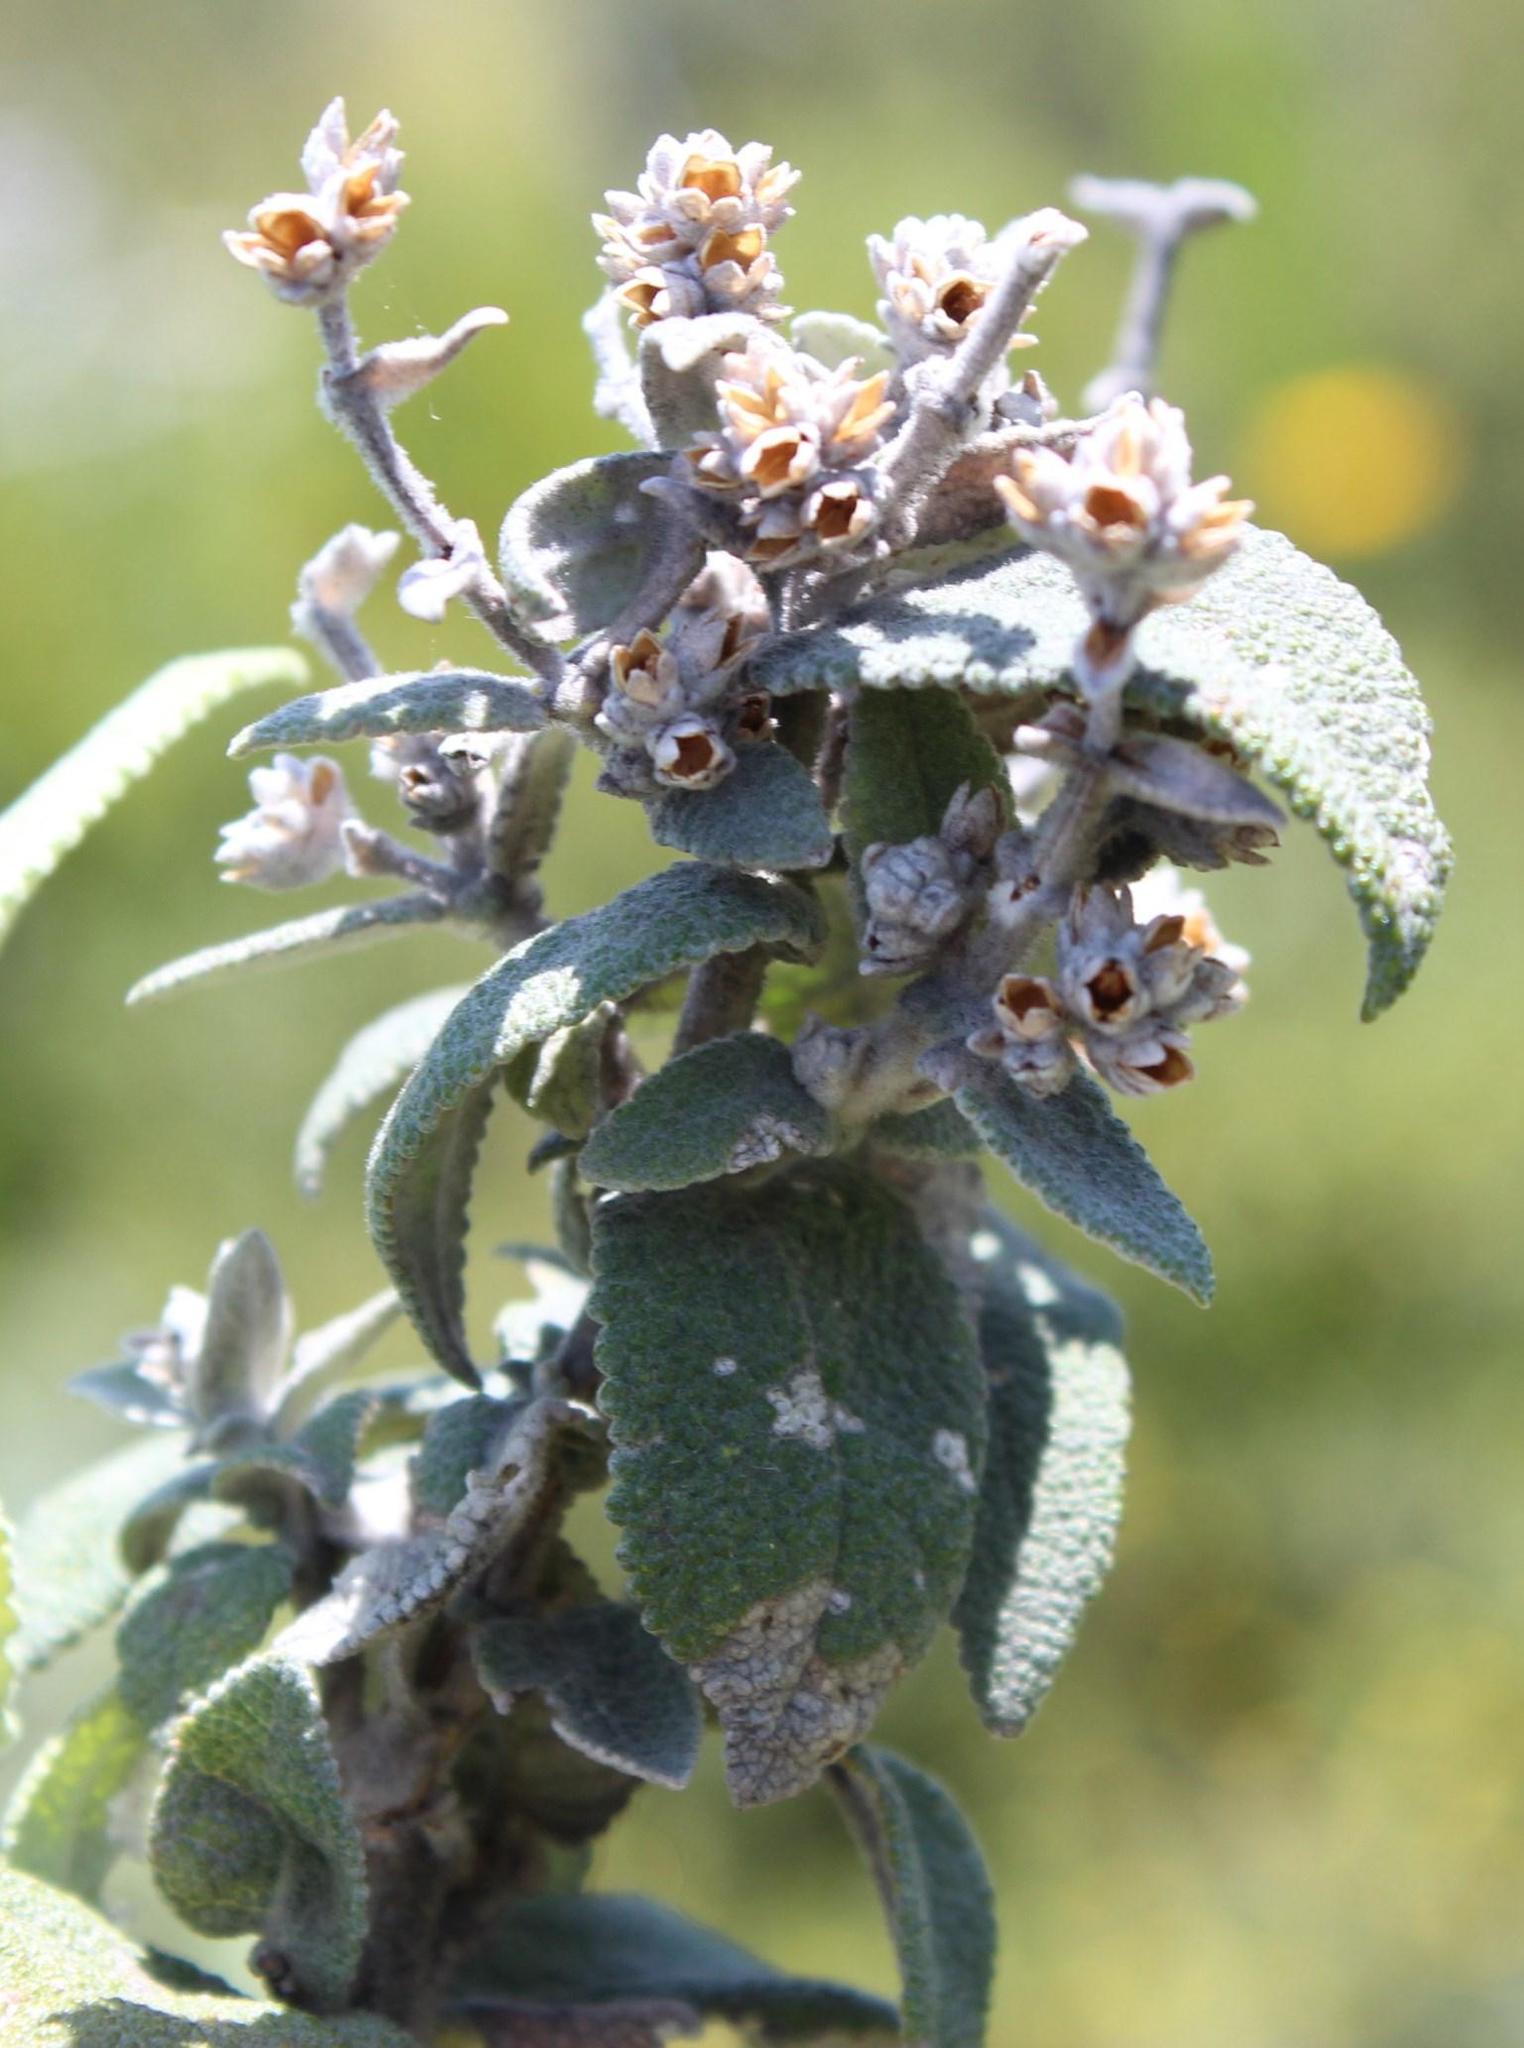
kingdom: Plantae
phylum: Tracheophyta
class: Magnoliopsida
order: Lamiales
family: Scrophulariaceae
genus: Buddleja
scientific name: Buddleja salviifolia
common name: Sagewood
